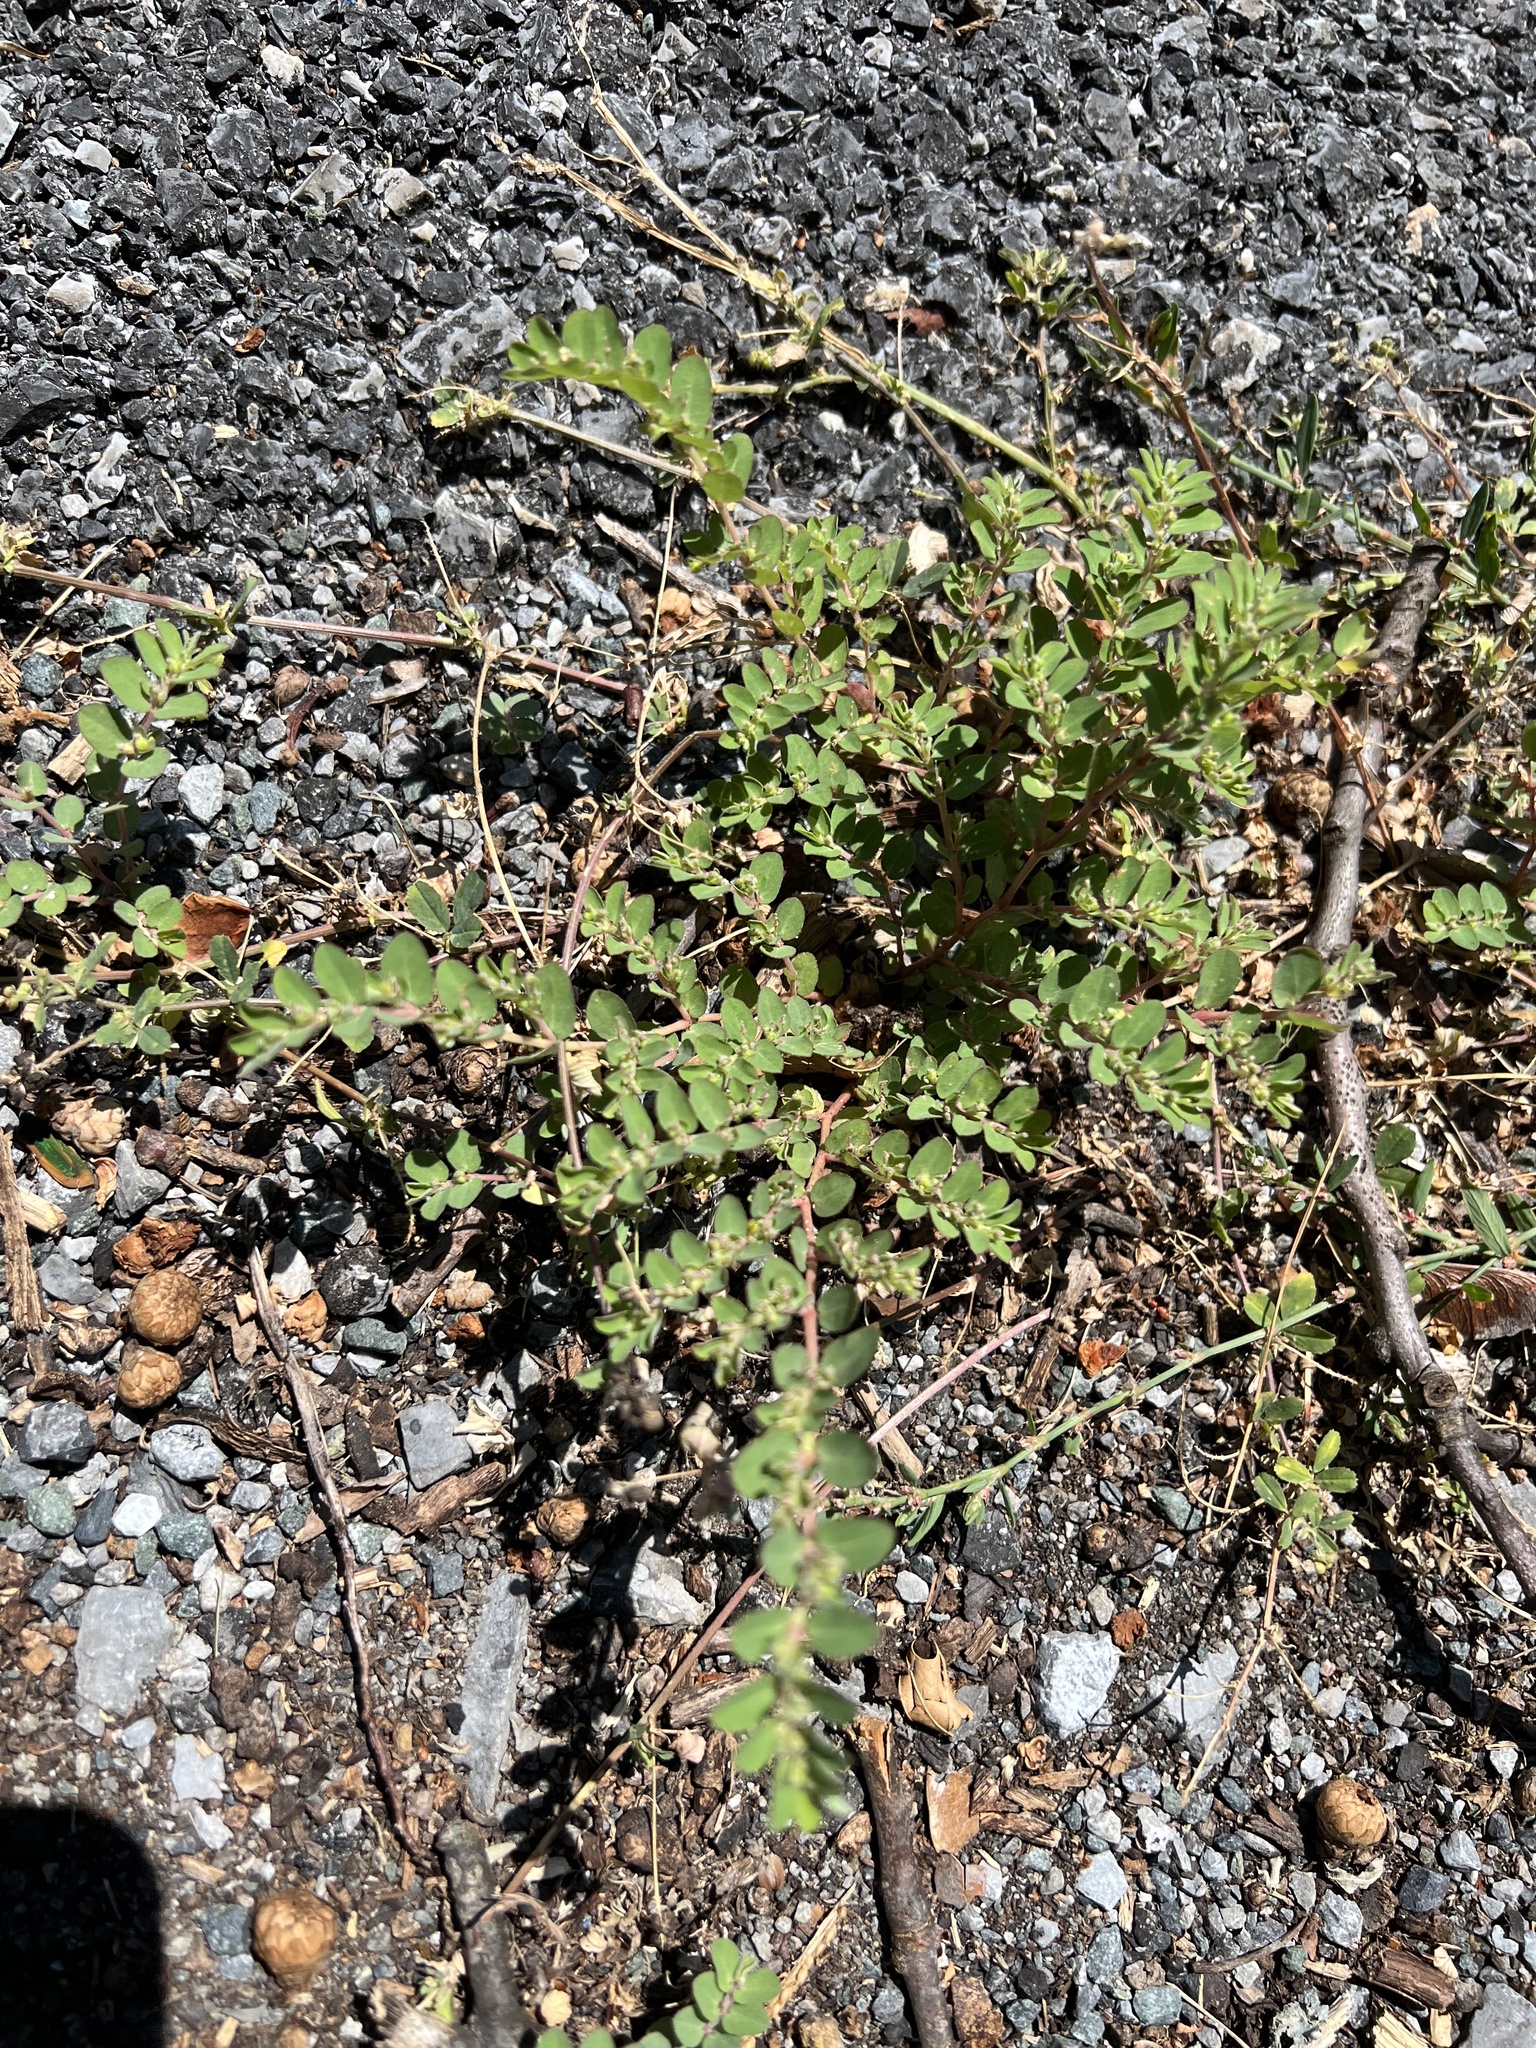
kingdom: Plantae
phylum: Tracheophyta
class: Magnoliopsida
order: Malpighiales
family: Euphorbiaceae
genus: Euphorbia
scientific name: Euphorbia prostrata
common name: Prostrate sandmat
